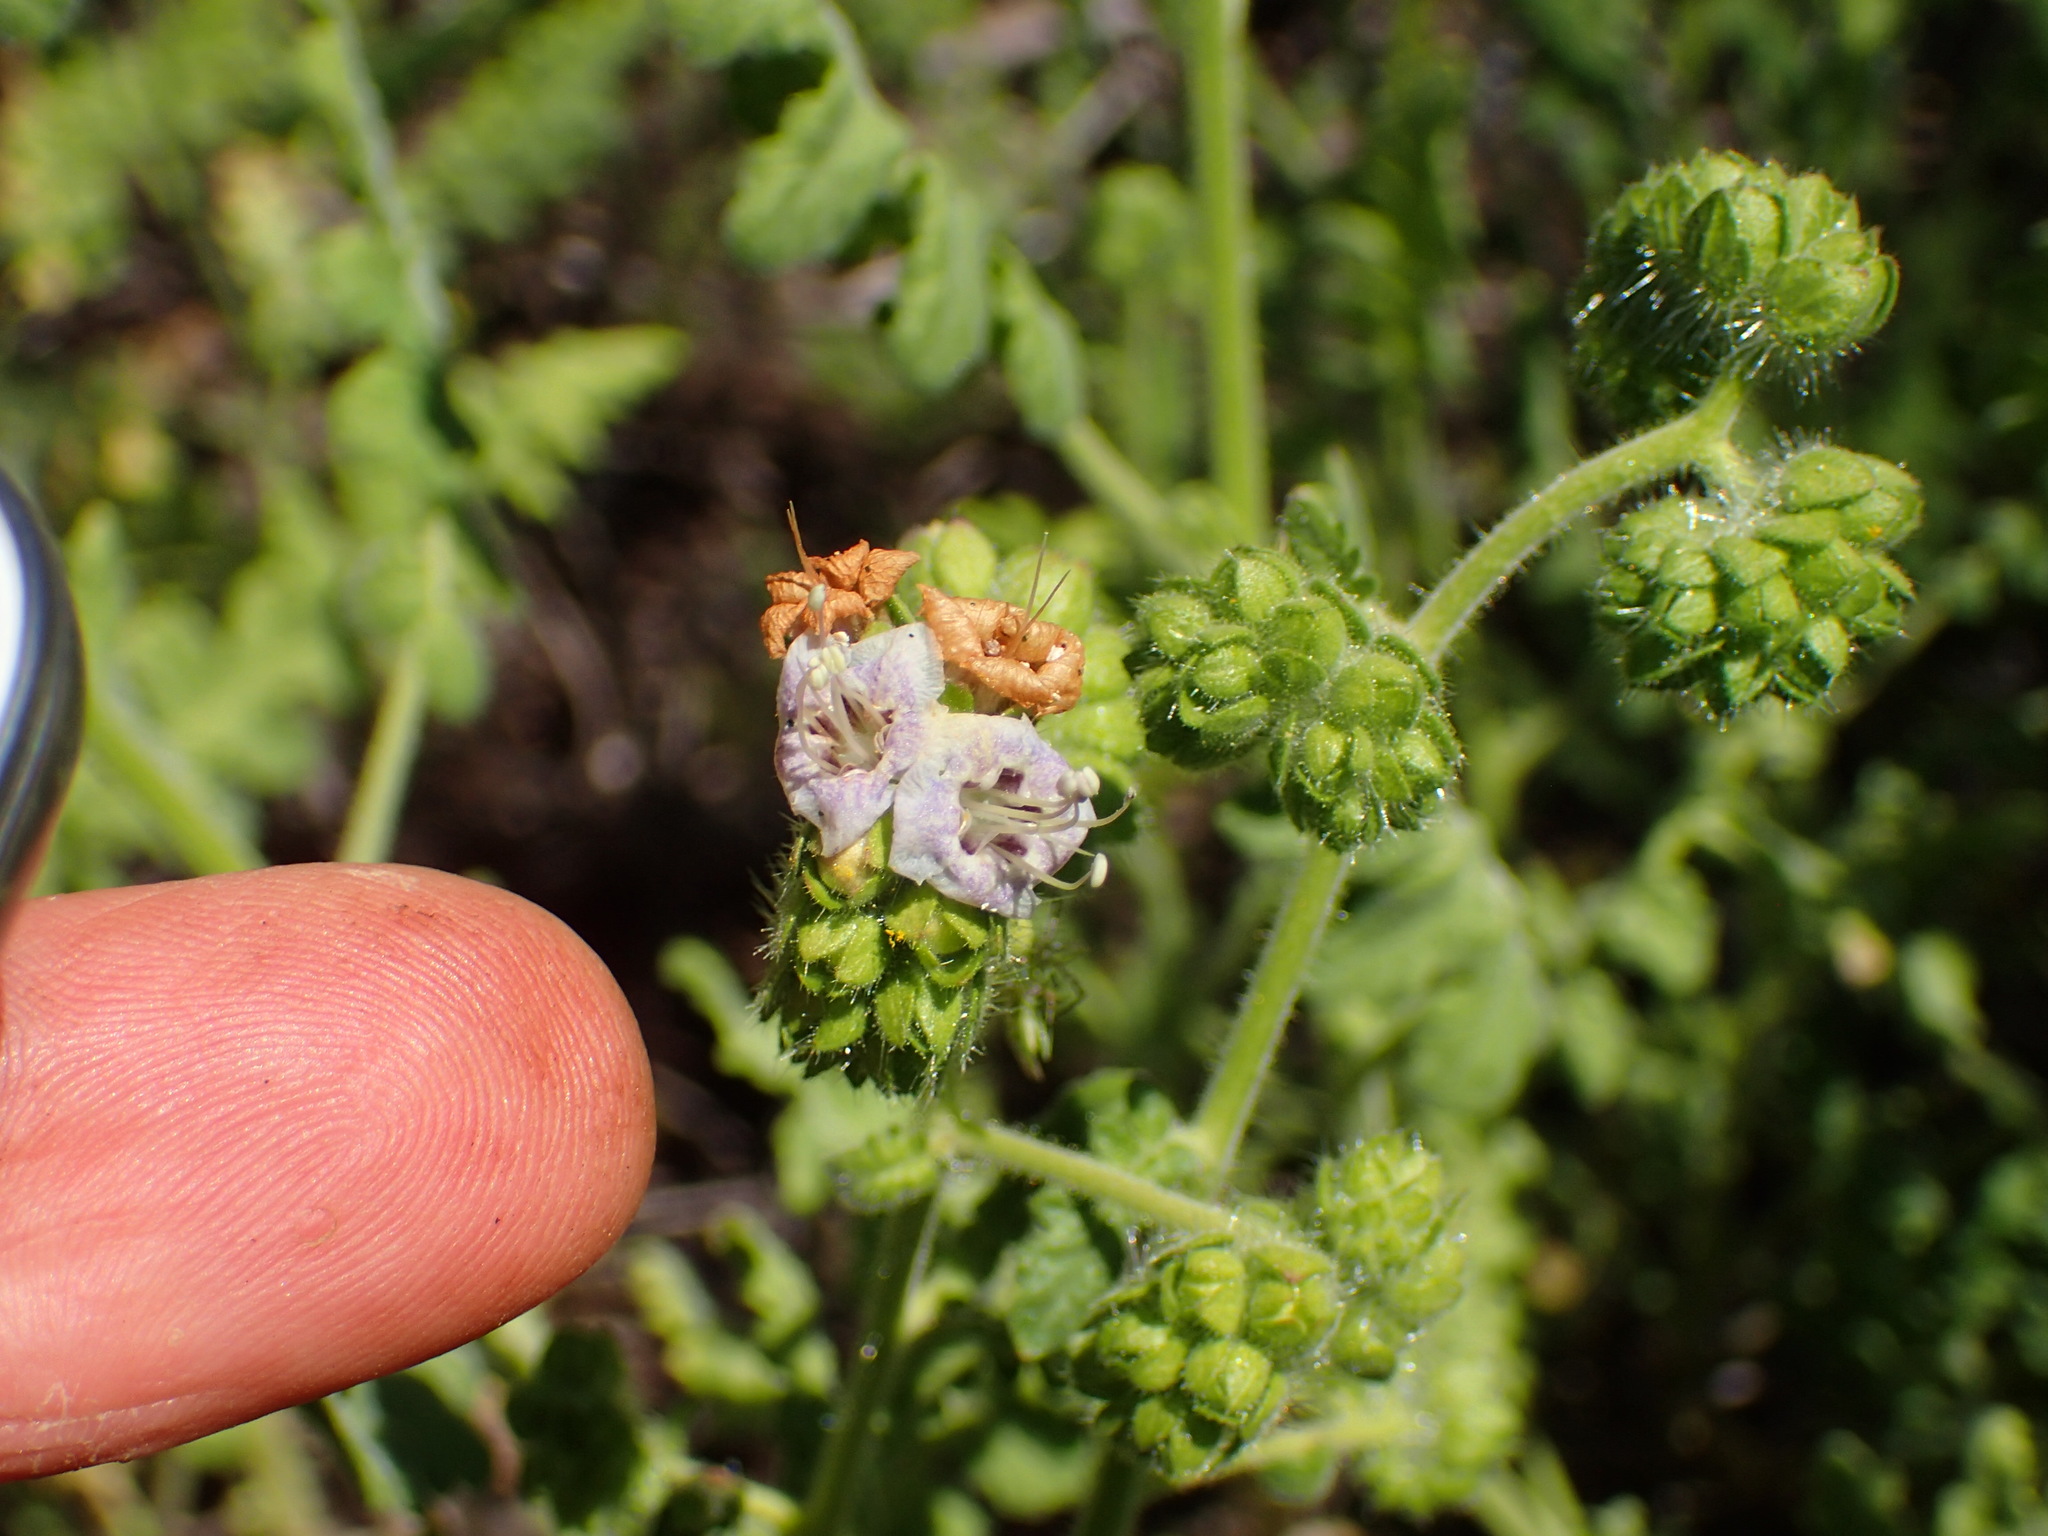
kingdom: Plantae
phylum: Tracheophyta
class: Magnoliopsida
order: Boraginales
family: Hydrophyllaceae
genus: Phacelia
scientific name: Phacelia ramosissima
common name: Branching phacelia
